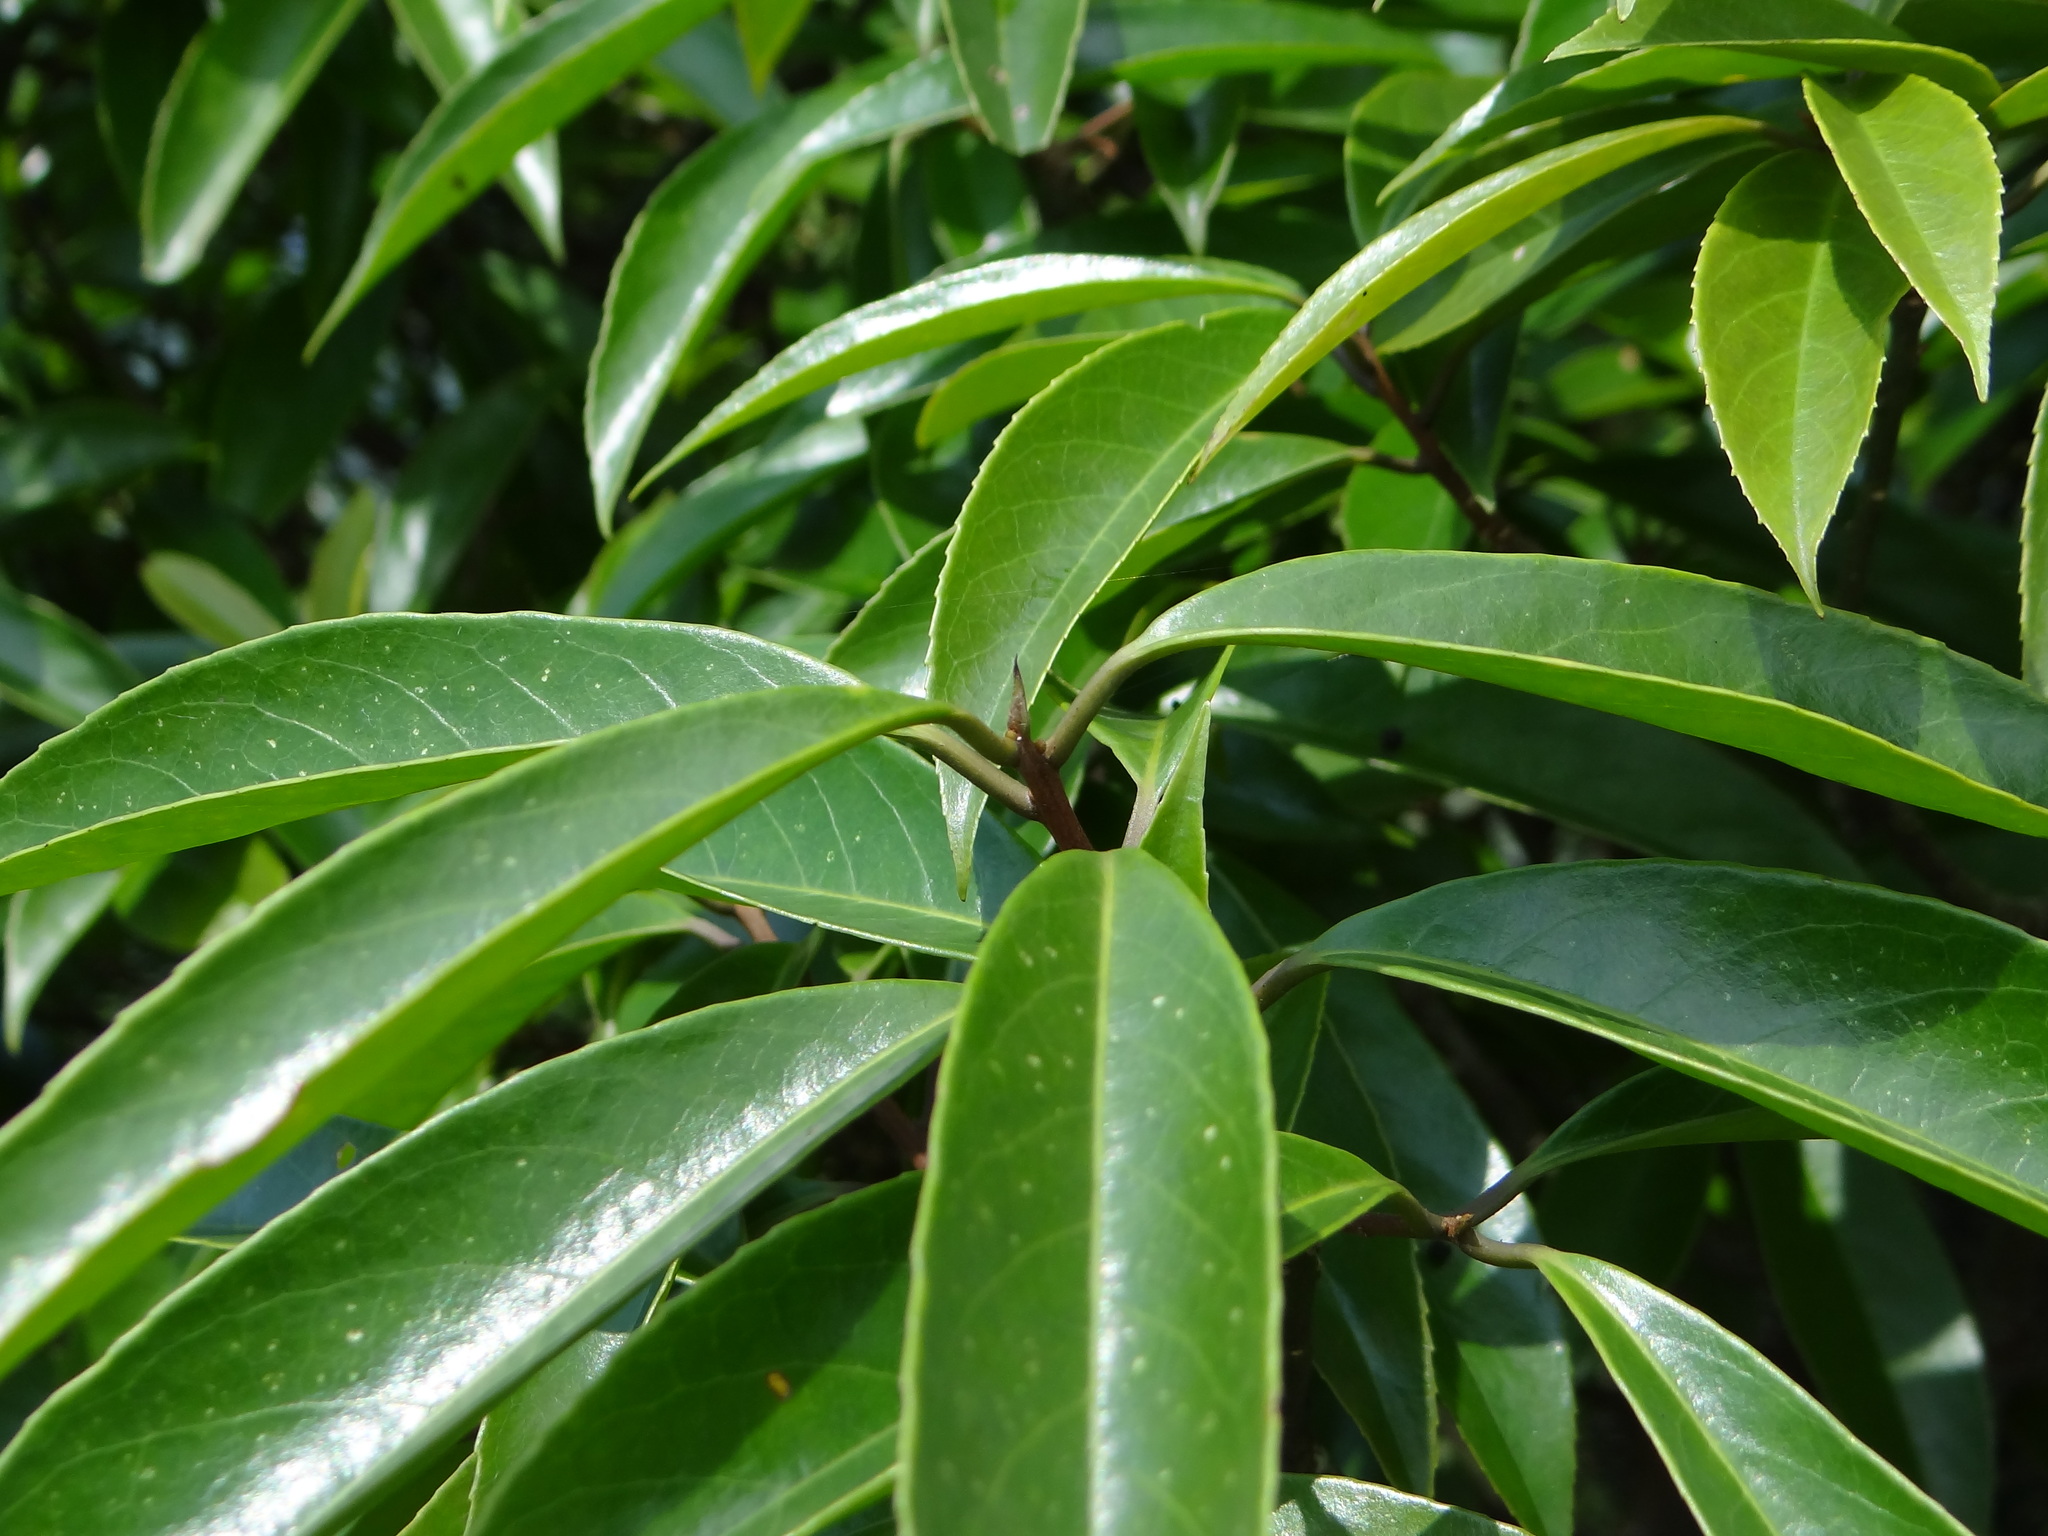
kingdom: Plantae
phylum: Tracheophyta
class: Magnoliopsida
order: Ericales
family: Symplocaceae
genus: Symplocos
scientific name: Symplocos acuminata
